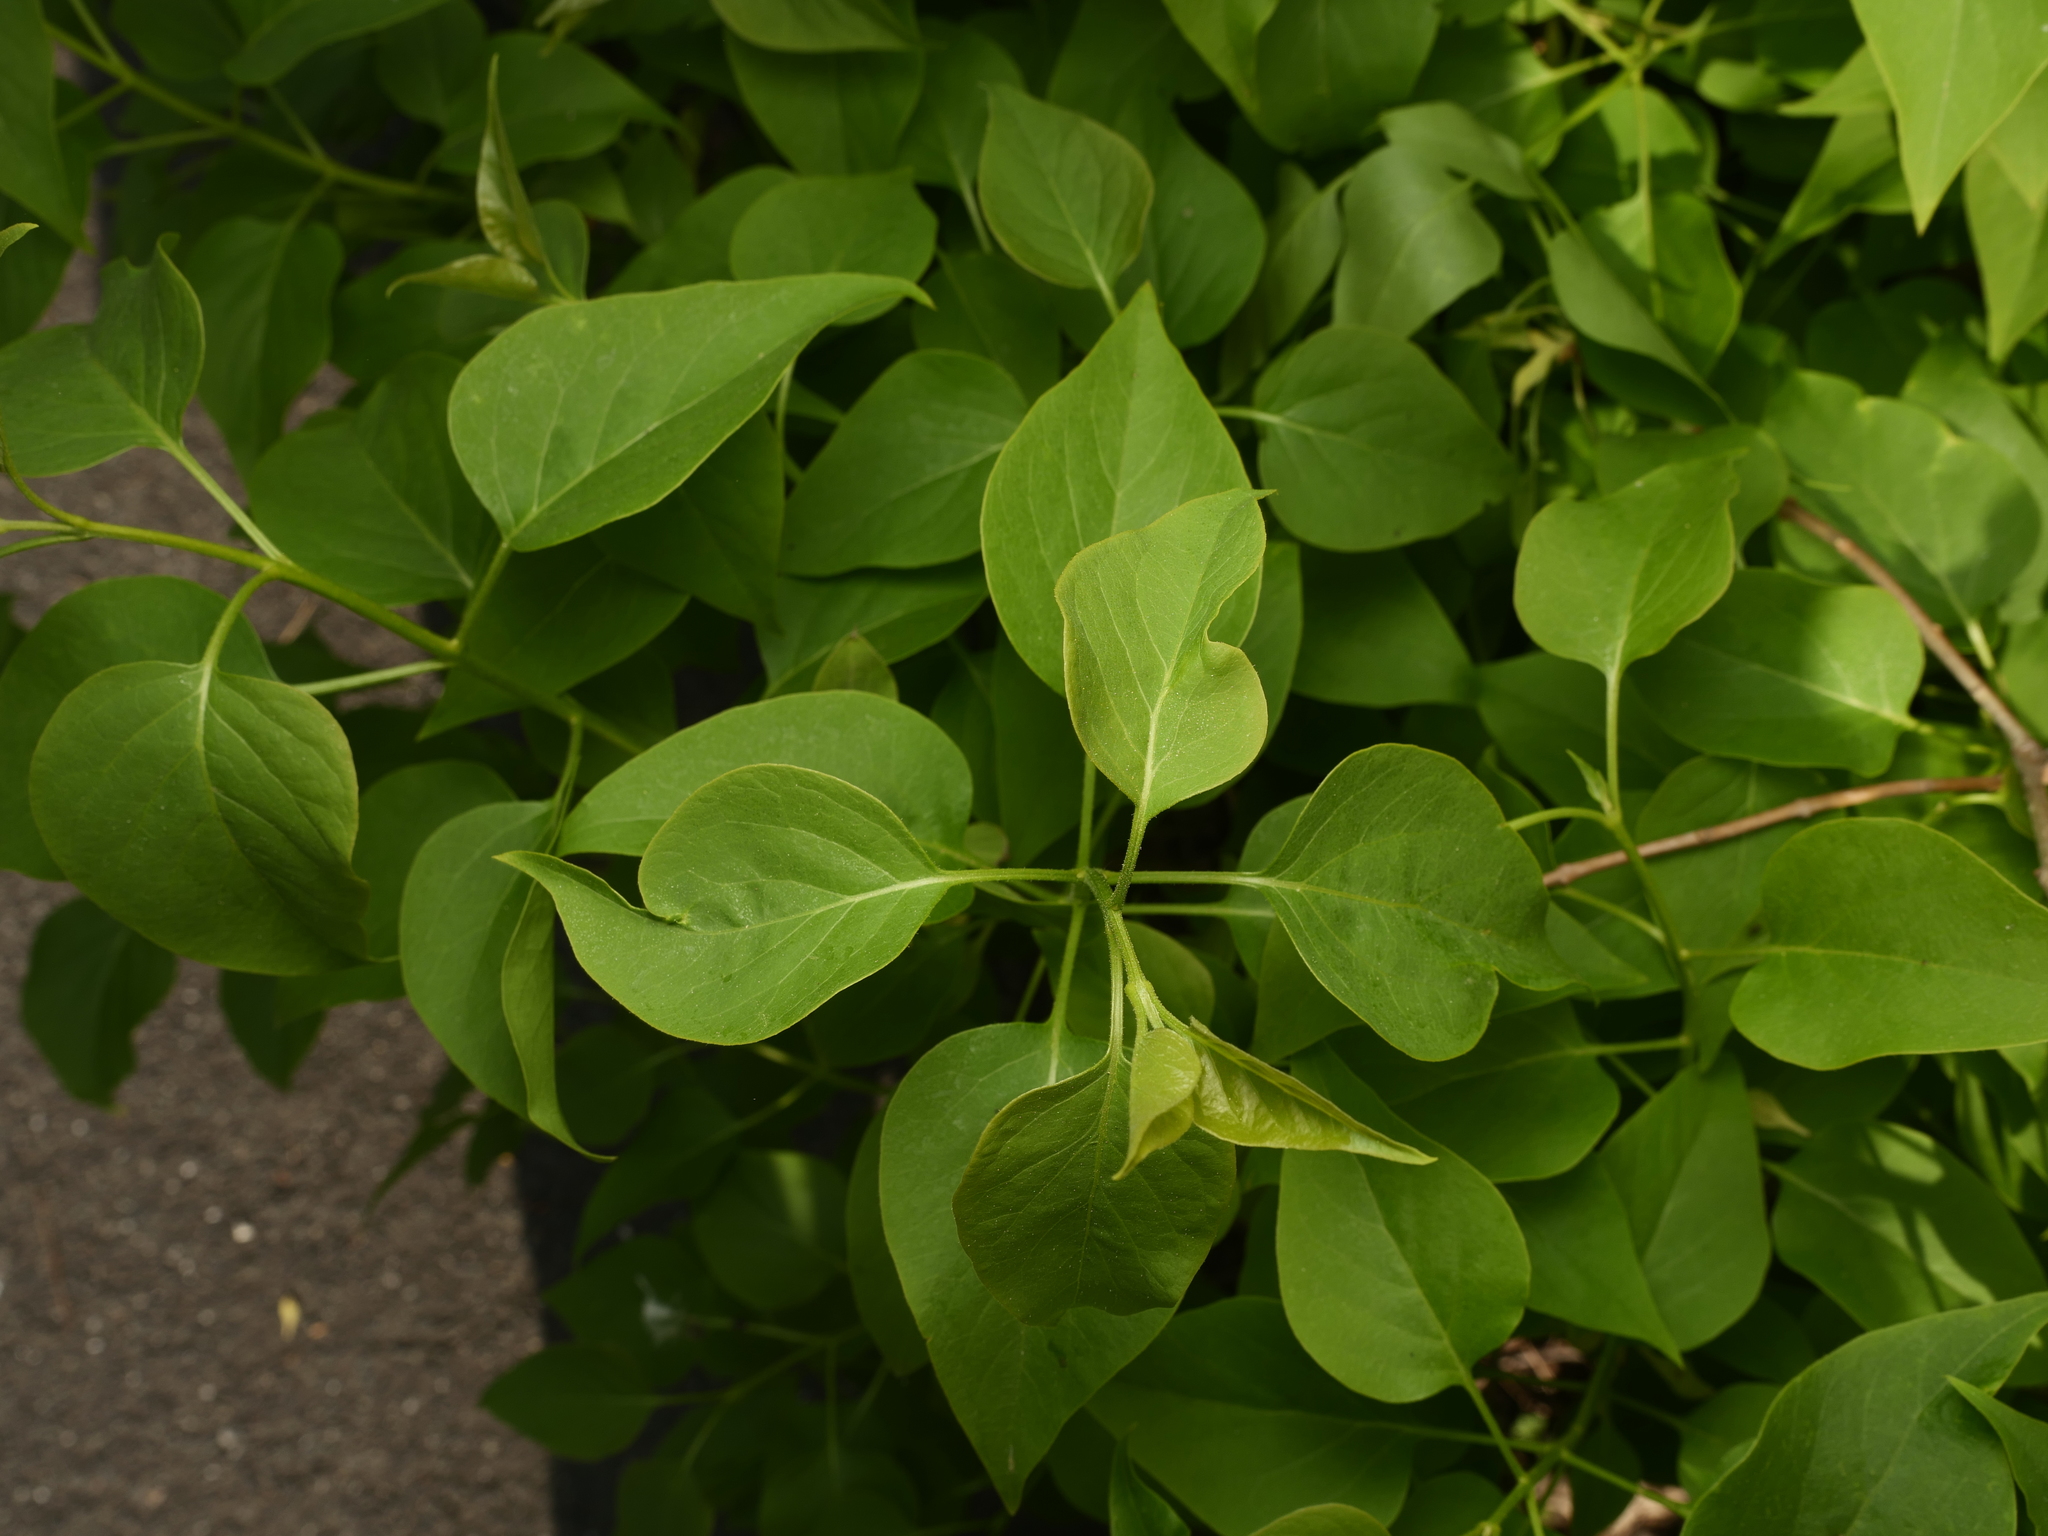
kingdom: Plantae
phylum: Tracheophyta
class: Magnoliopsida
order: Lamiales
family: Oleaceae
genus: Syringa
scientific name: Syringa vulgaris
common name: Common lilac
